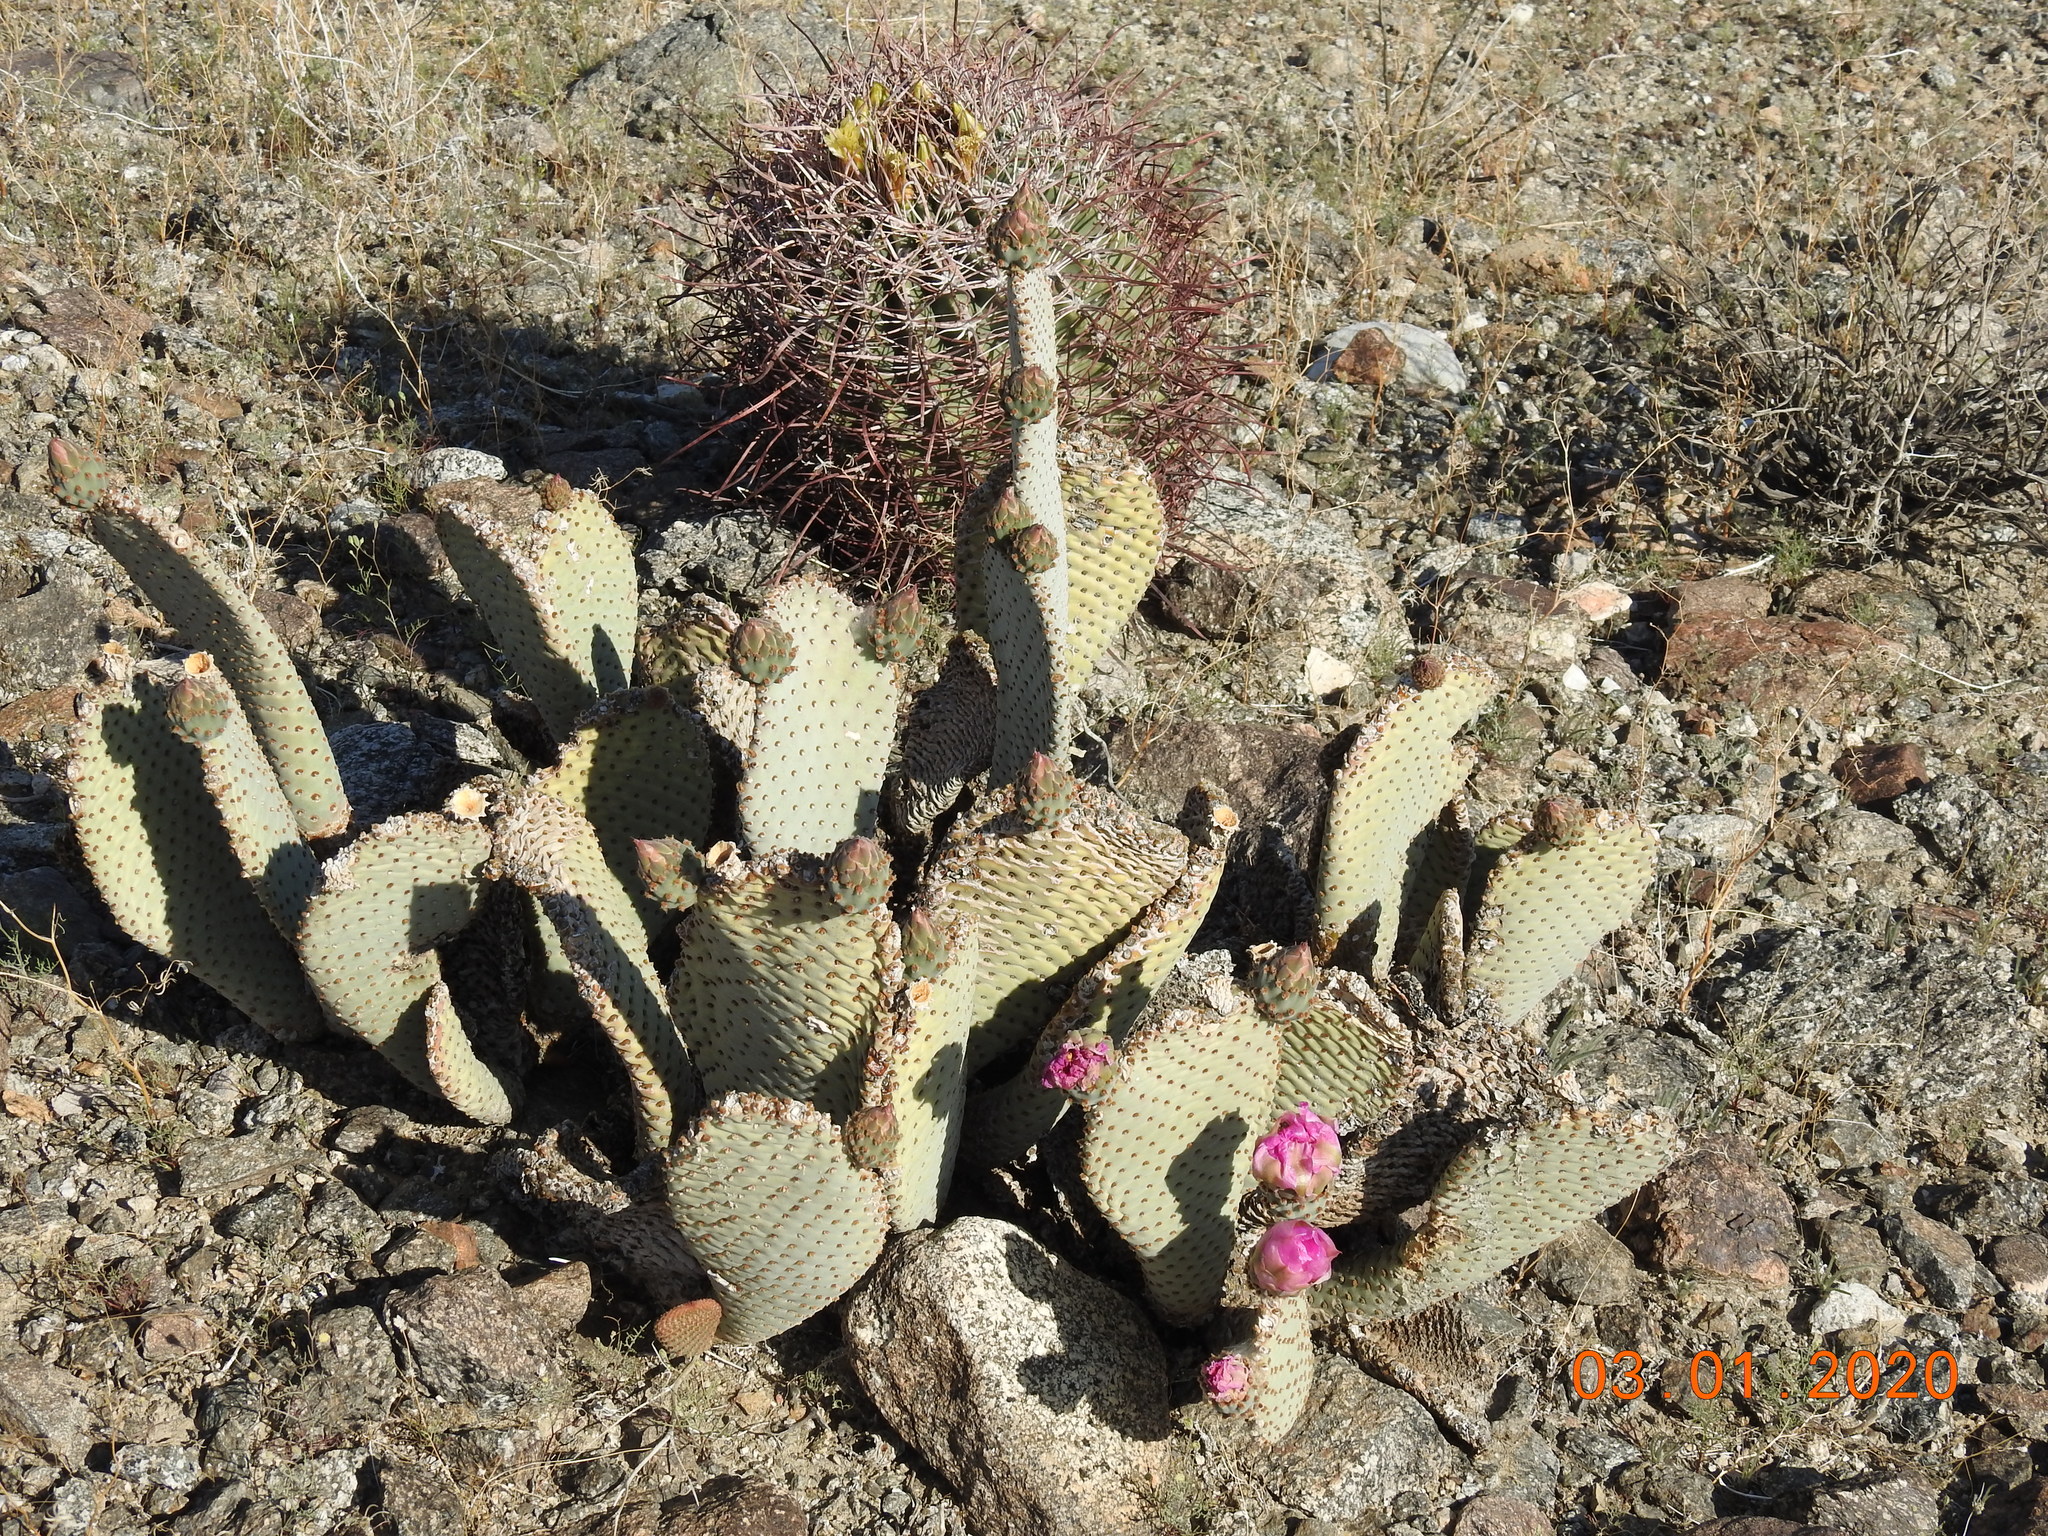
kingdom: Plantae
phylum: Tracheophyta
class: Magnoliopsida
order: Caryophyllales
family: Cactaceae
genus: Opuntia
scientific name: Opuntia basilaris
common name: Beavertail prickly-pear
